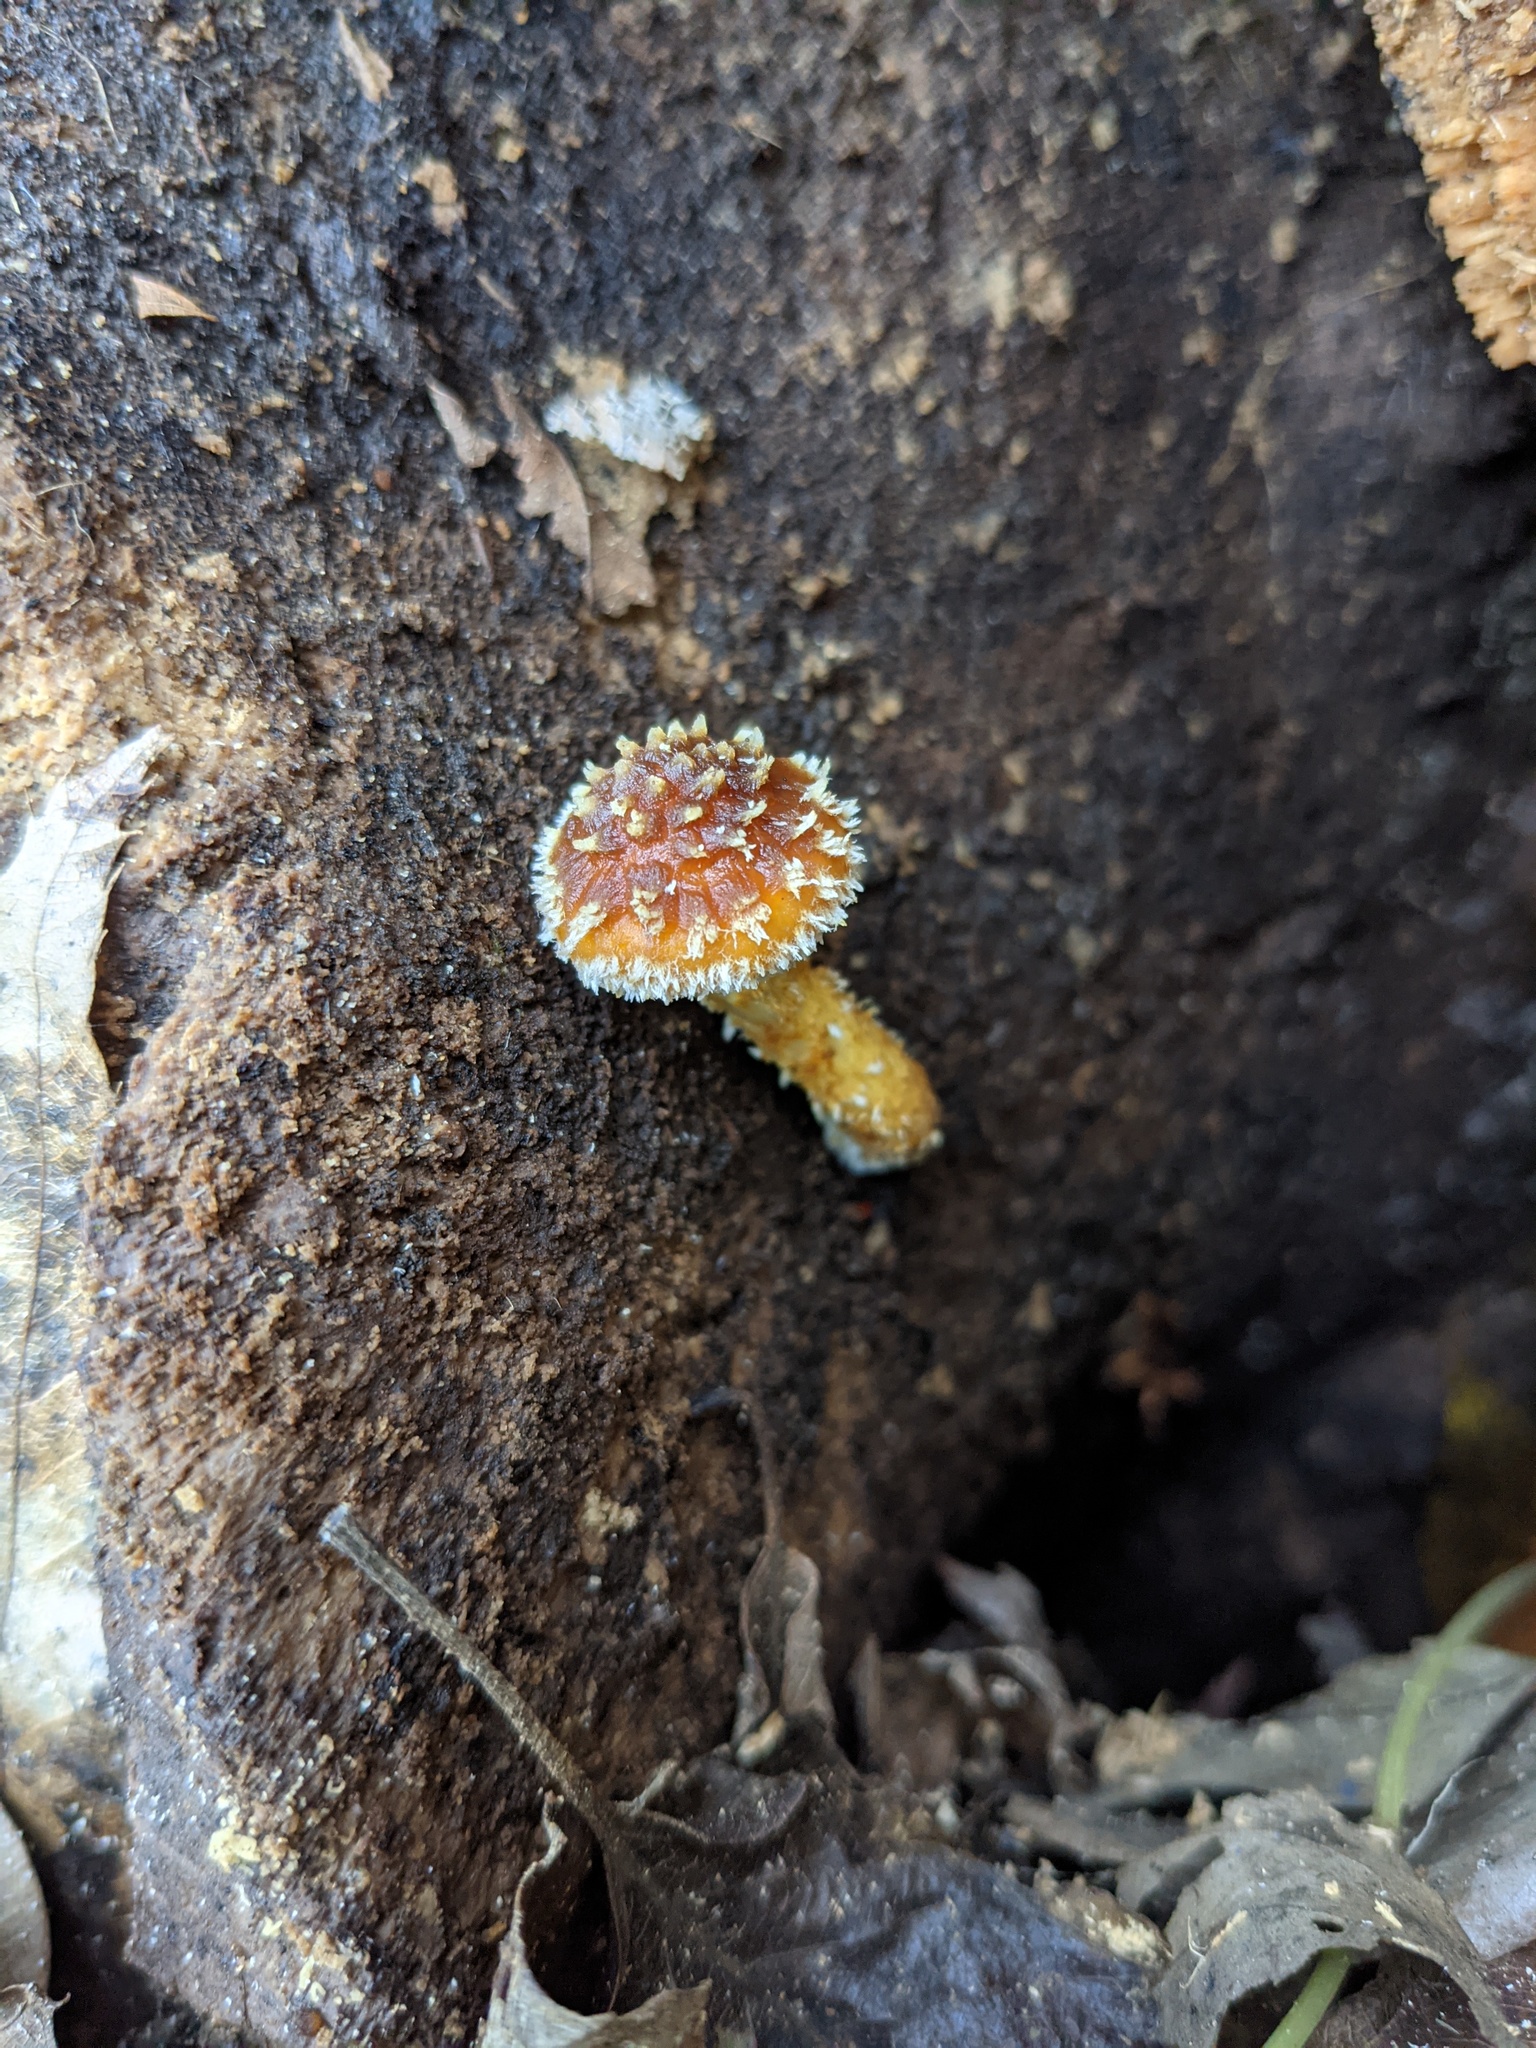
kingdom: Fungi
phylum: Basidiomycota
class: Agaricomycetes
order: Agaricales
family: Strophariaceae
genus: Pholiota
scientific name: Pholiota adiposa
